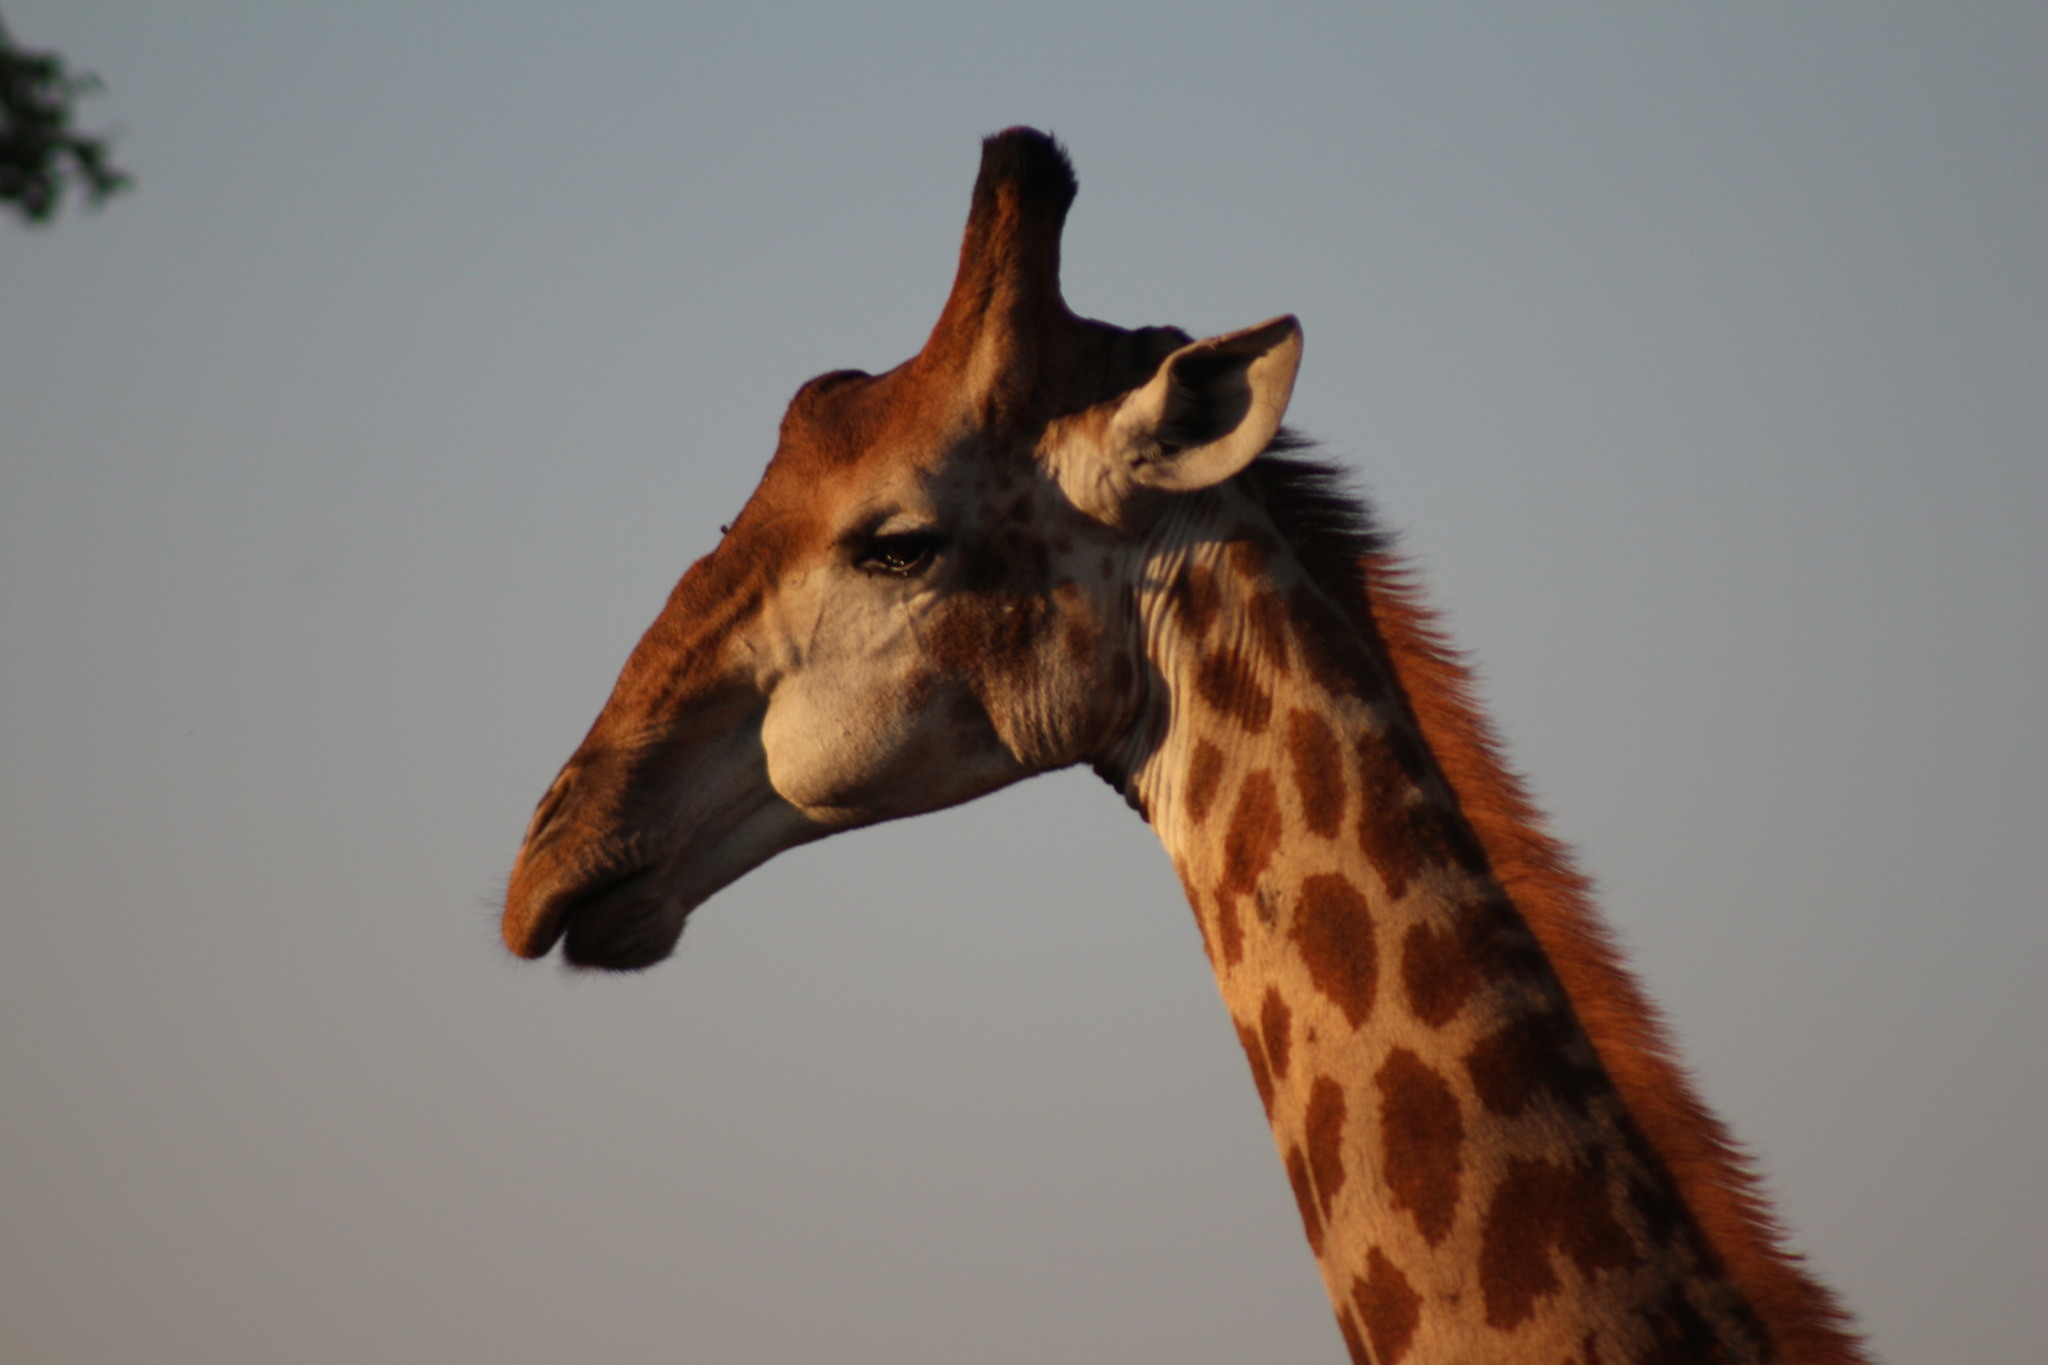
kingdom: Animalia
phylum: Chordata
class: Mammalia
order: Artiodactyla
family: Giraffidae
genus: Giraffa
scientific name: Giraffa giraffa
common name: Southern giraffe
